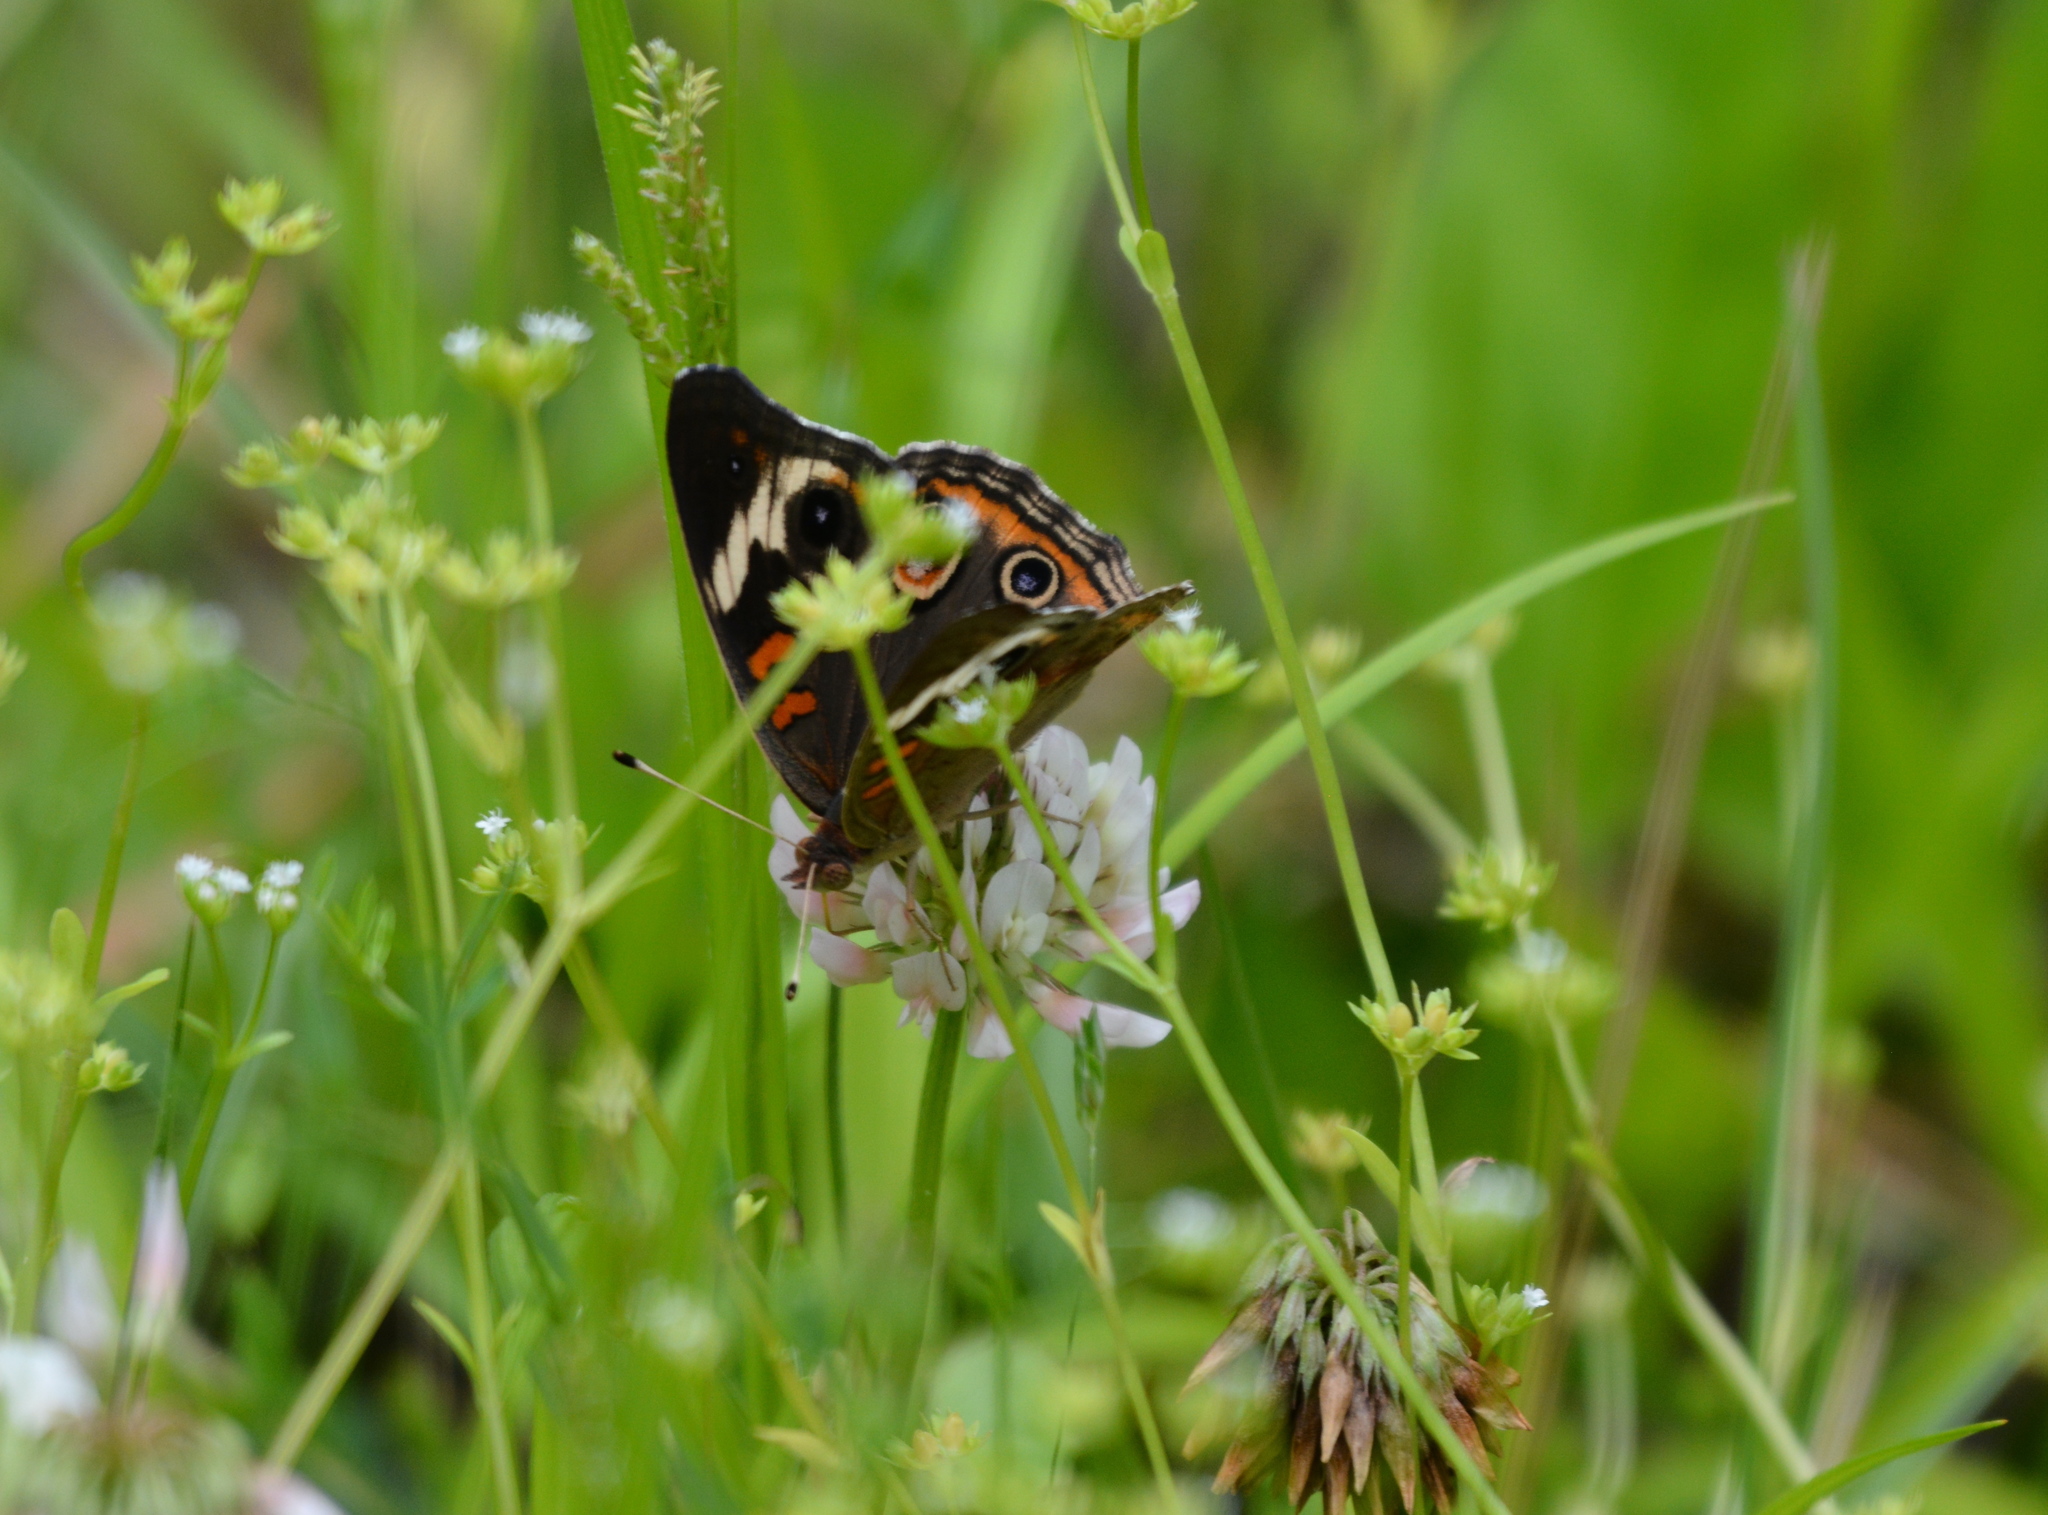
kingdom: Animalia
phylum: Arthropoda
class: Insecta
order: Lepidoptera
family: Nymphalidae
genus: Junonia
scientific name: Junonia coenia
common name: Common buckeye
